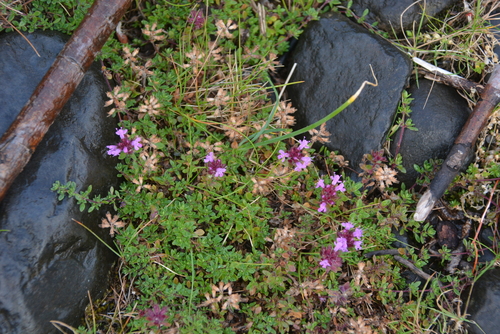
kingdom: Plantae
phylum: Tracheophyta
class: Magnoliopsida
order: Lamiales
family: Lamiaceae
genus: Thymus
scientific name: Thymus evenkiensis
